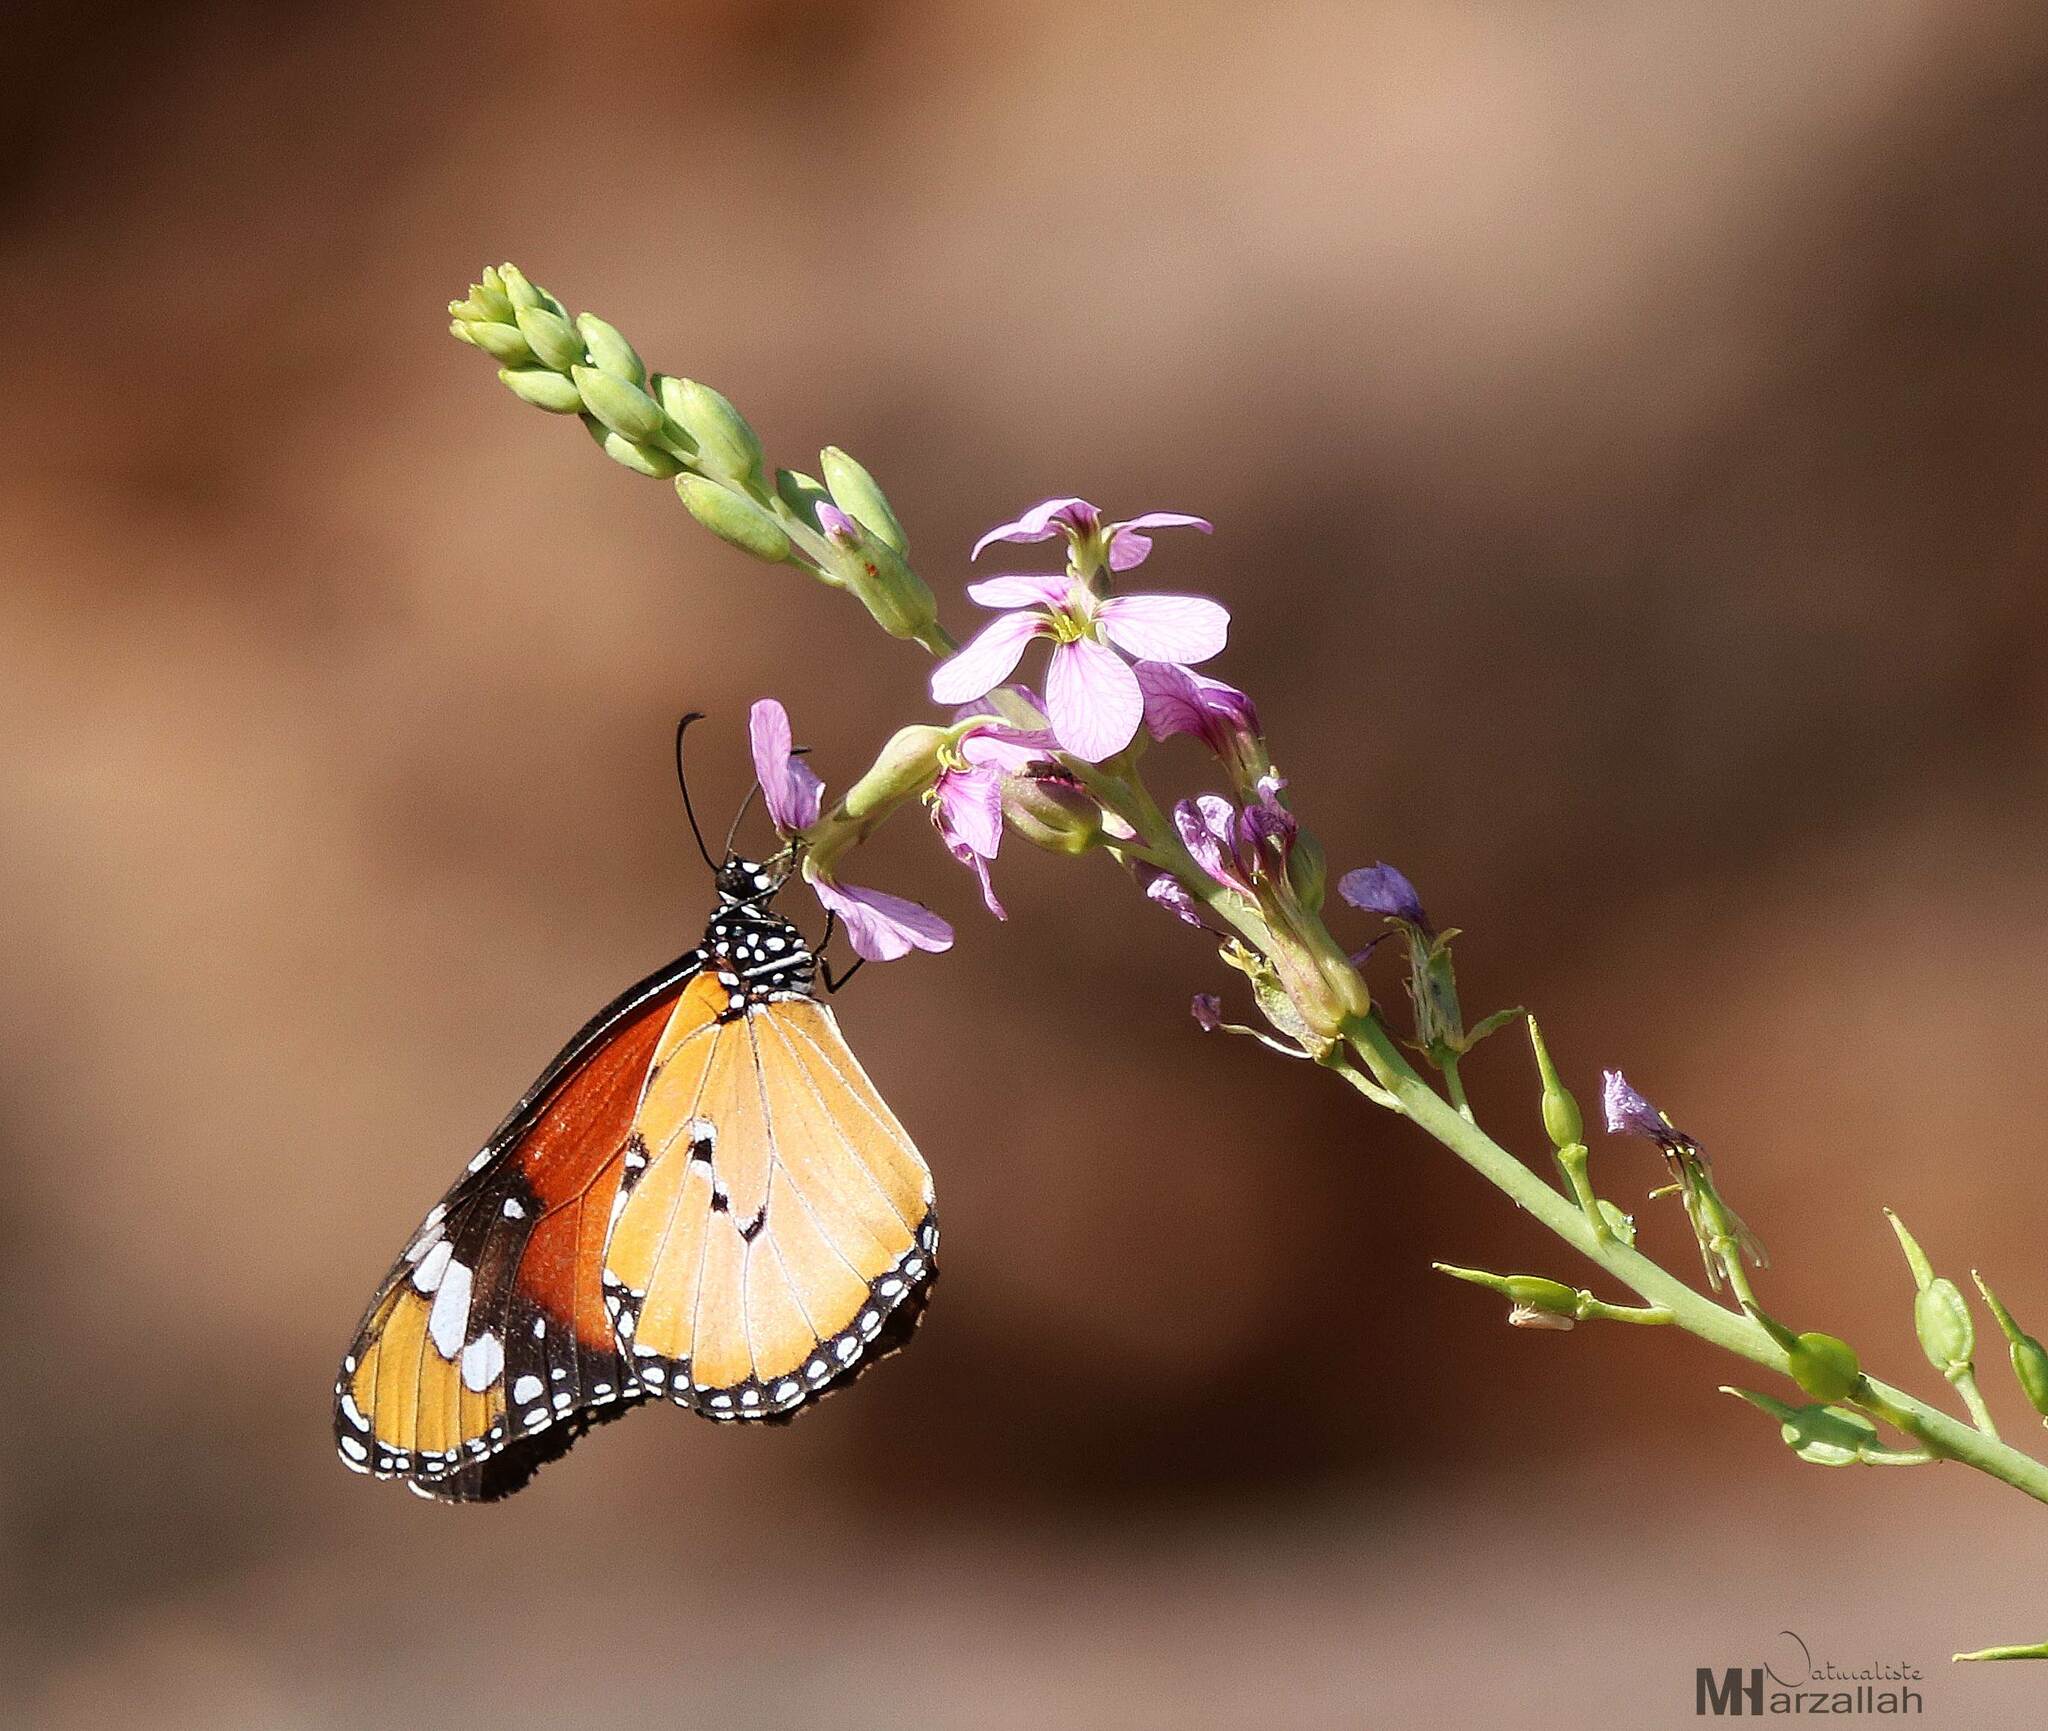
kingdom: Animalia
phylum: Arthropoda
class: Insecta
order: Lepidoptera
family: Nymphalidae
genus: Danaus
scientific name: Danaus chrysippus
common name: Plain tiger
